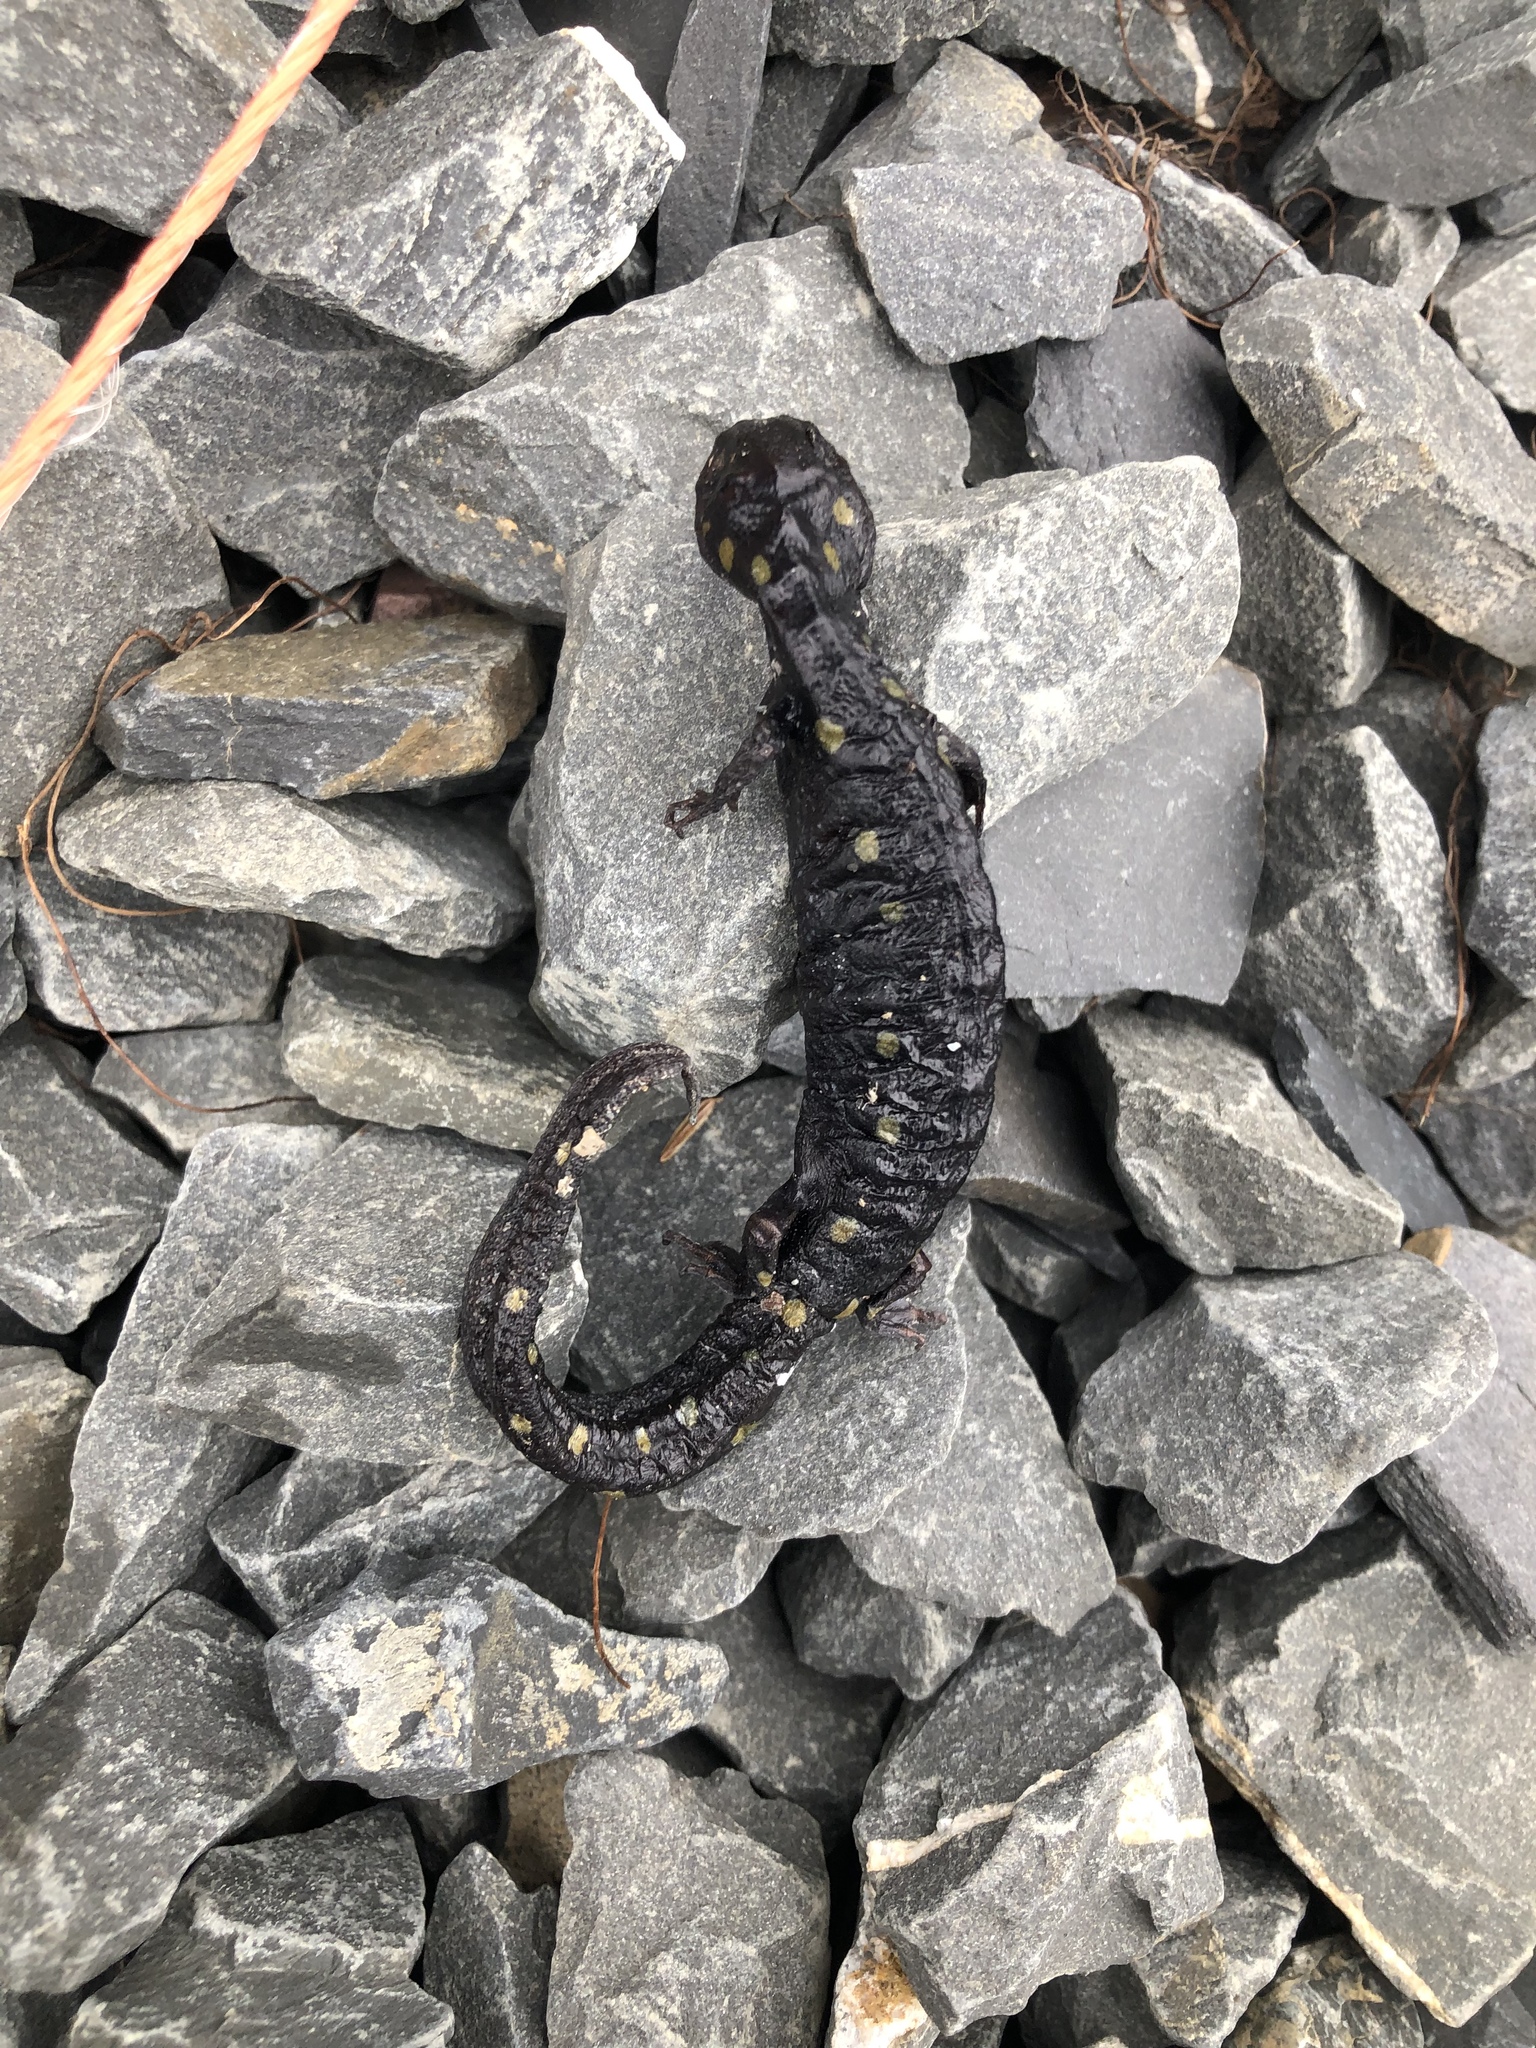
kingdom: Animalia
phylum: Chordata
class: Amphibia
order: Caudata
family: Ambystomatidae
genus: Ambystoma
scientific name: Ambystoma maculatum
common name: Spotted salamander
